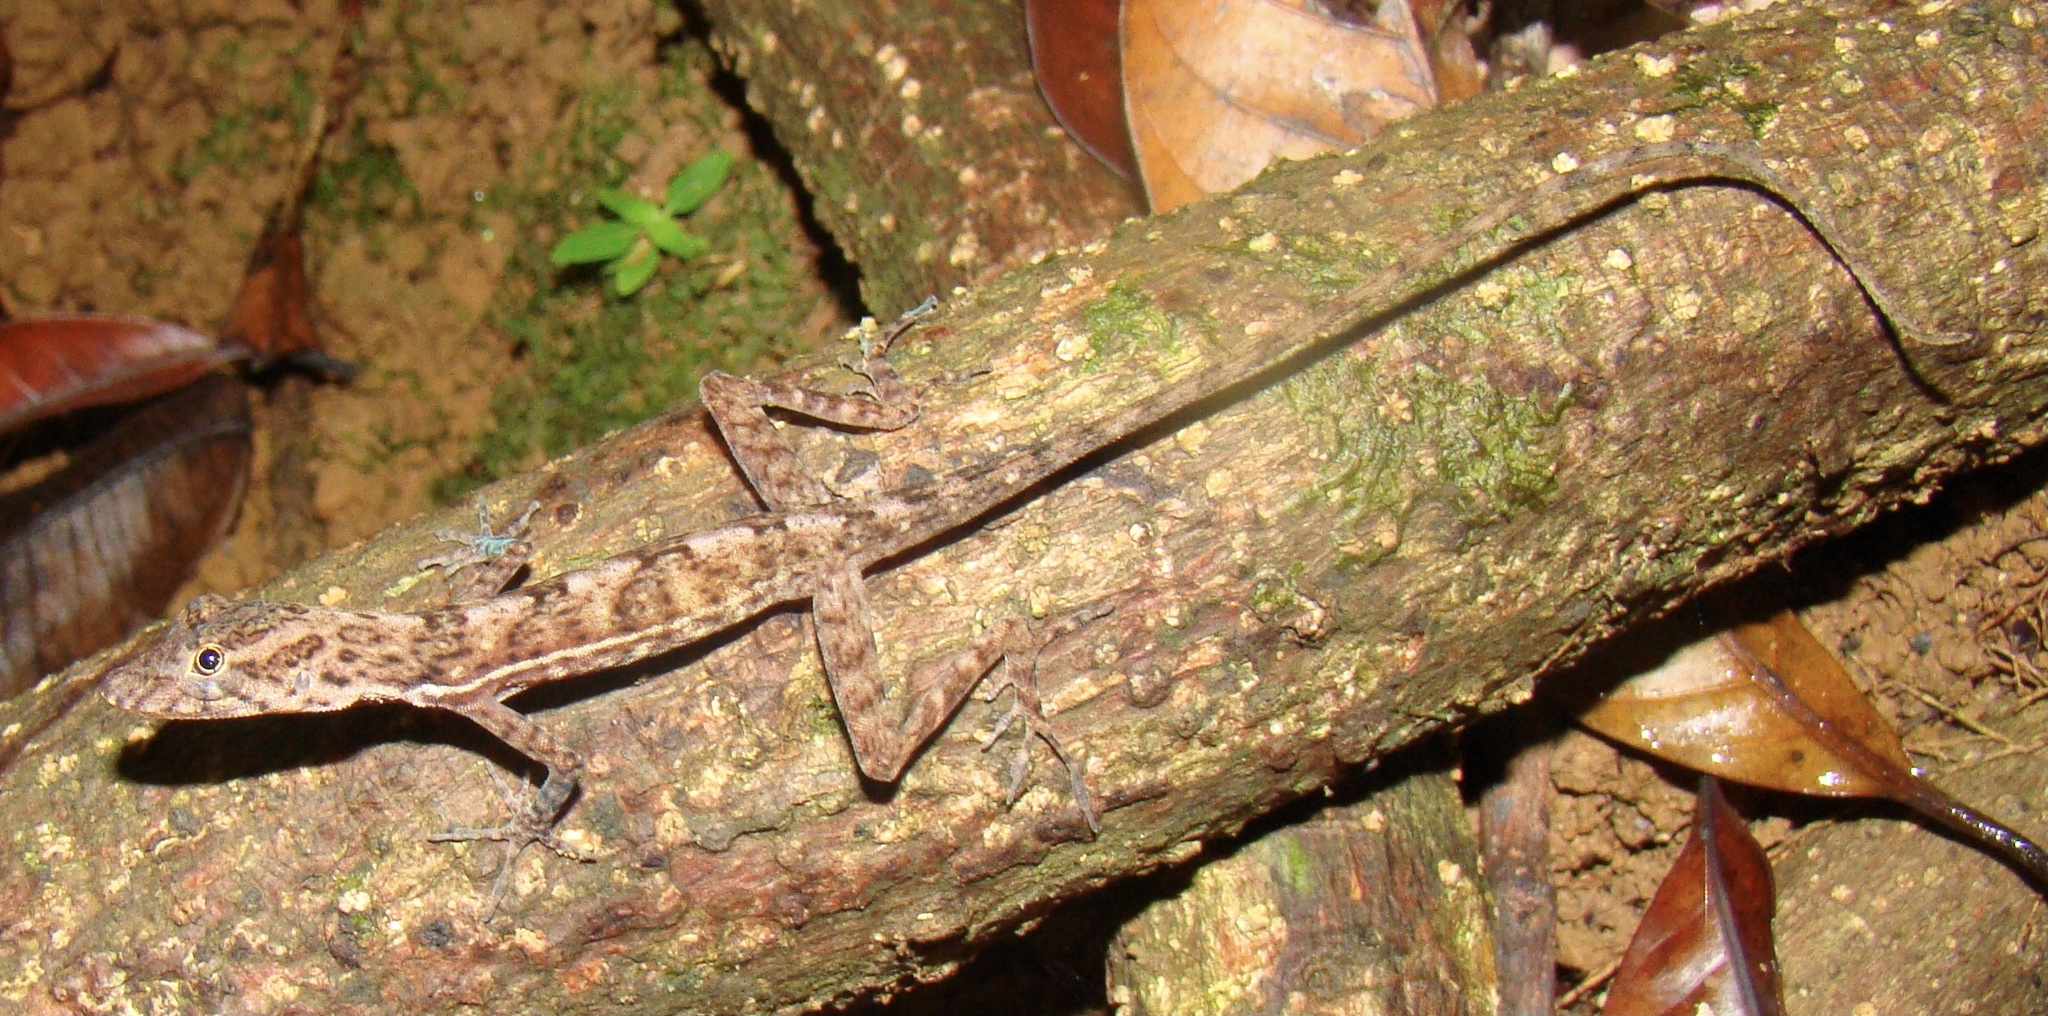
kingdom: Animalia
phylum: Chordata
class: Squamata
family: Dactyloidae
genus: Anolis
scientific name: Anolis osa
